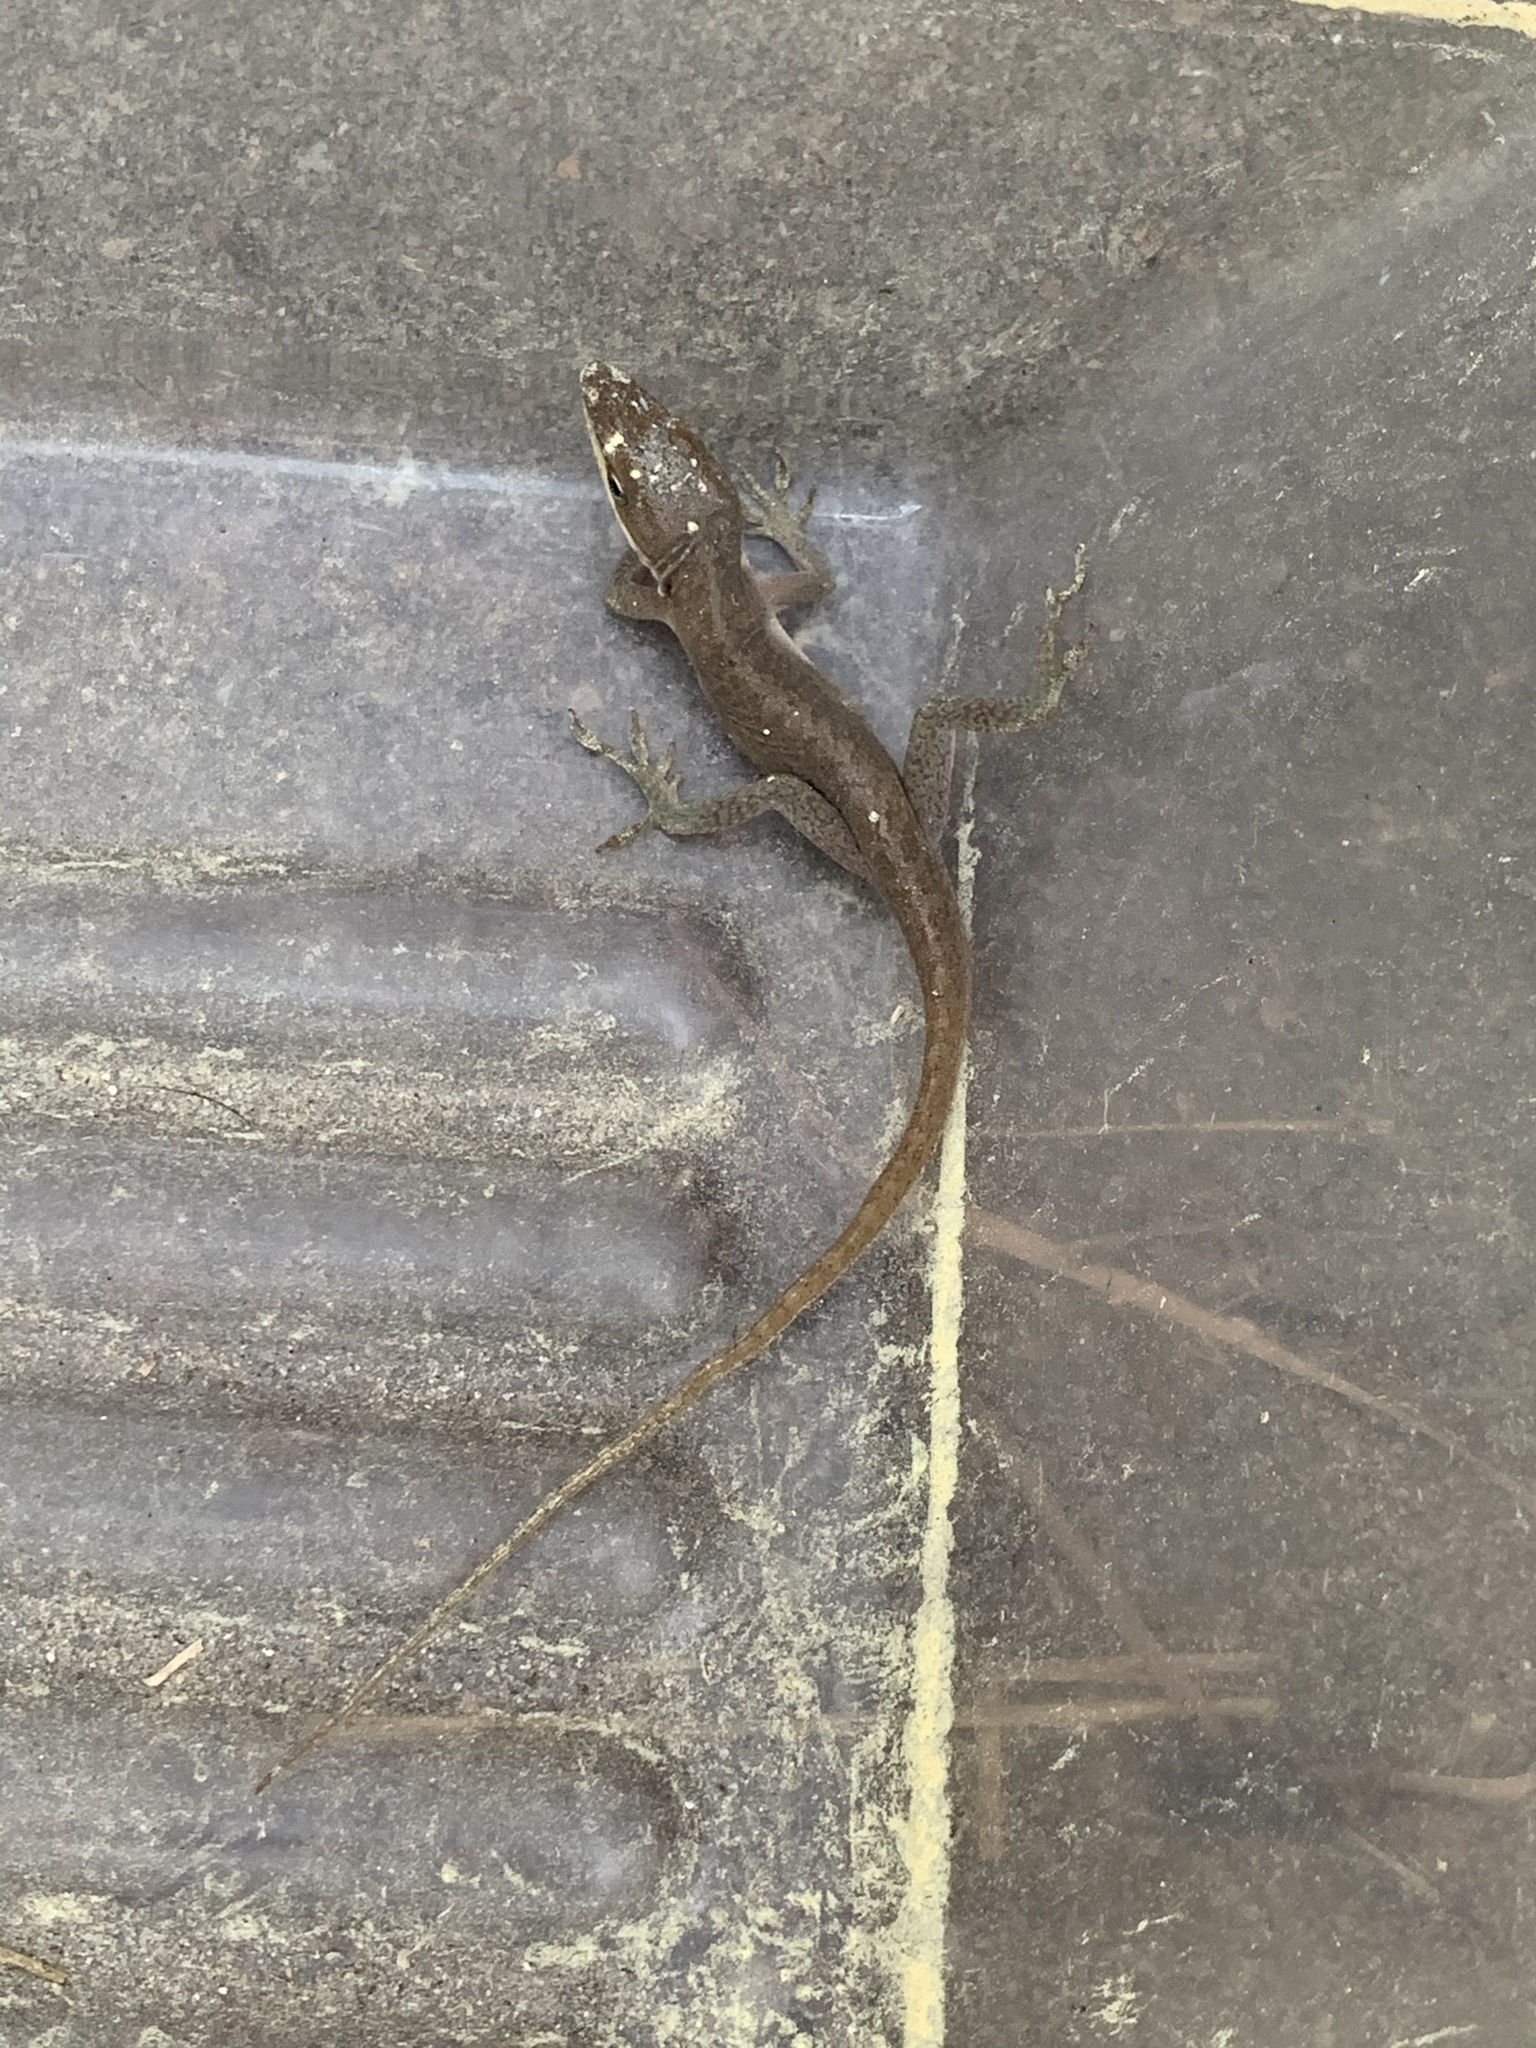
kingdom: Animalia
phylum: Chordata
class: Squamata
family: Dactyloidae
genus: Anolis
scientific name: Anolis carolinensis
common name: Green anole
